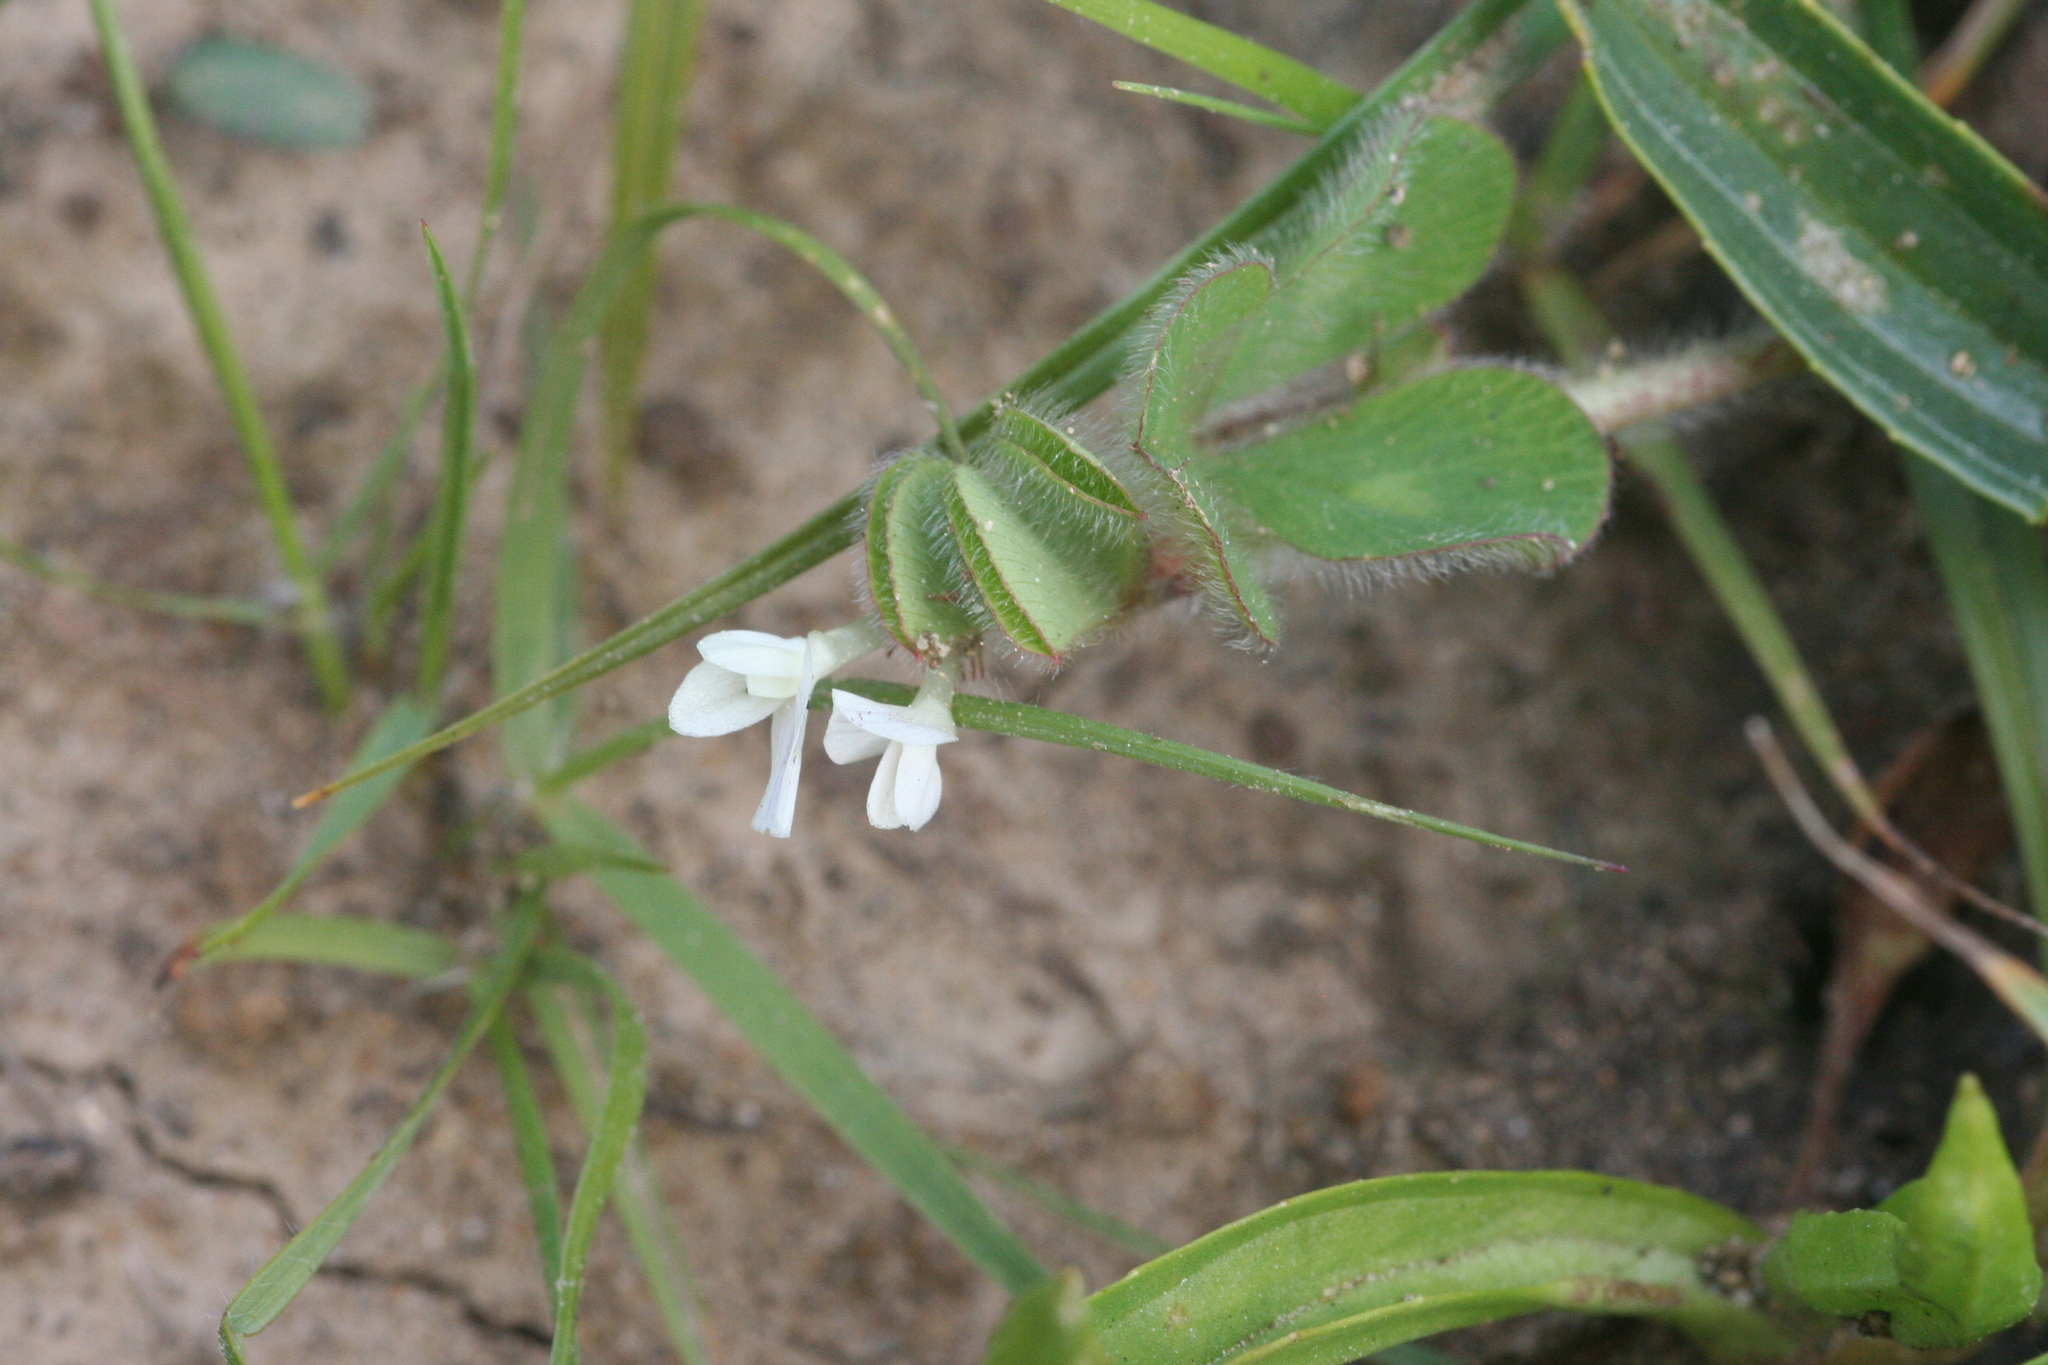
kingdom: Plantae
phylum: Tracheophyta
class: Magnoliopsida
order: Fabales
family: Fabaceae
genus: Trifolium
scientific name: Trifolium subterraneum
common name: Subterranean clover
